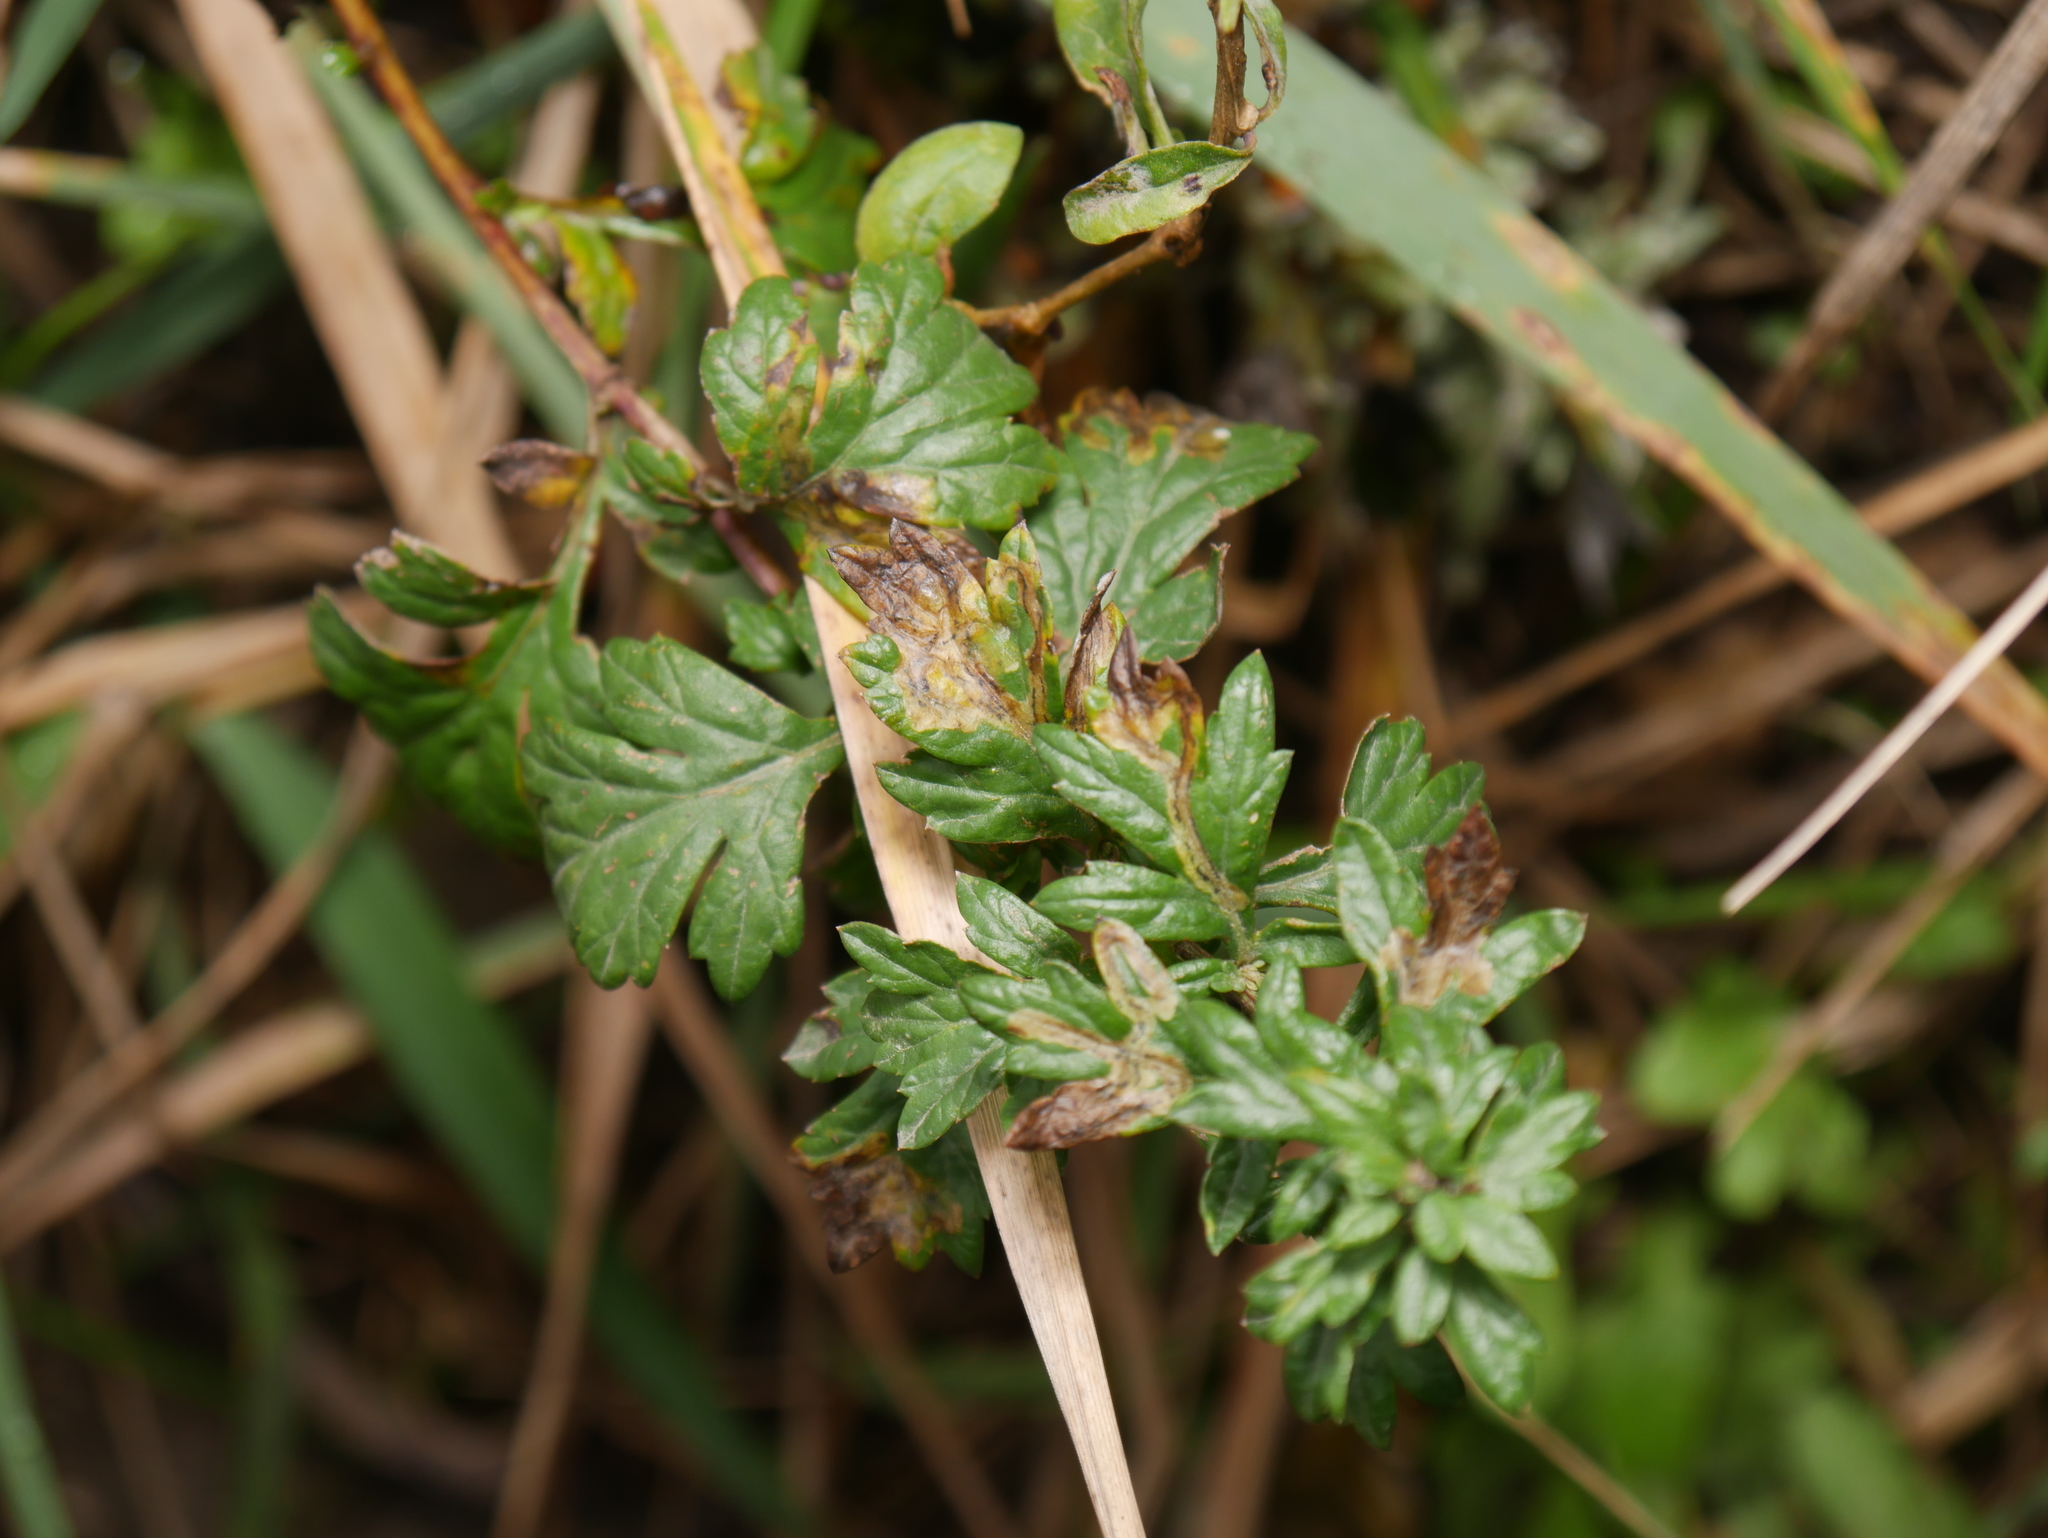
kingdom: Plantae
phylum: Tracheophyta
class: Magnoliopsida
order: Asterales
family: Asteraceae
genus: Artemisia
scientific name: Artemisia vulgaris
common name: Mugwort
